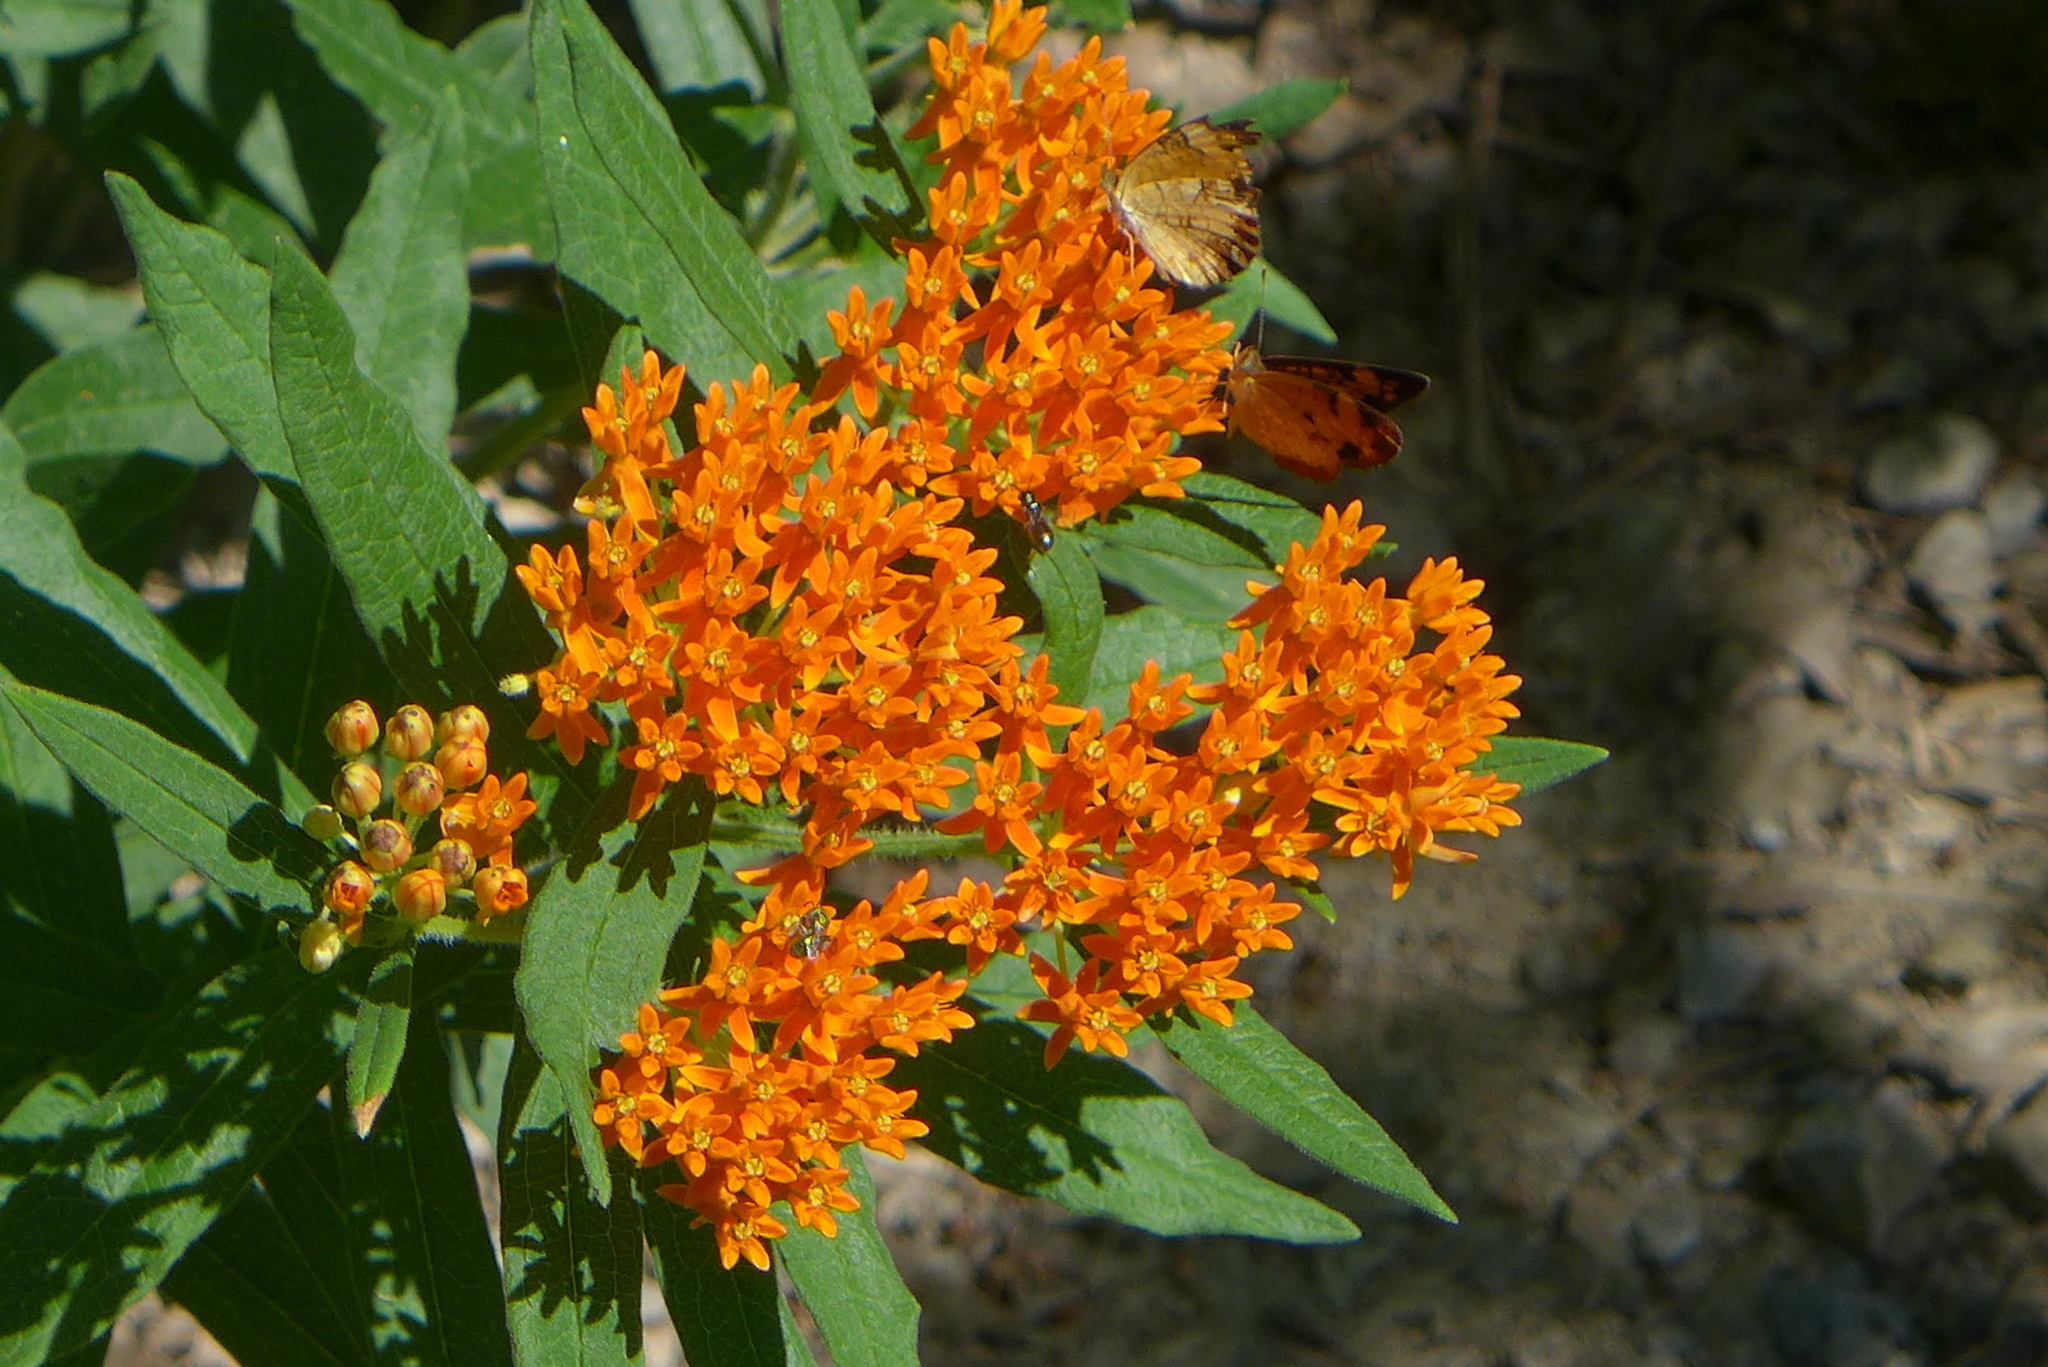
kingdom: Plantae
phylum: Tracheophyta
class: Magnoliopsida
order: Gentianales
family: Apocynaceae
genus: Asclepias
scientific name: Asclepias tuberosa
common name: Butterfly milkweed
